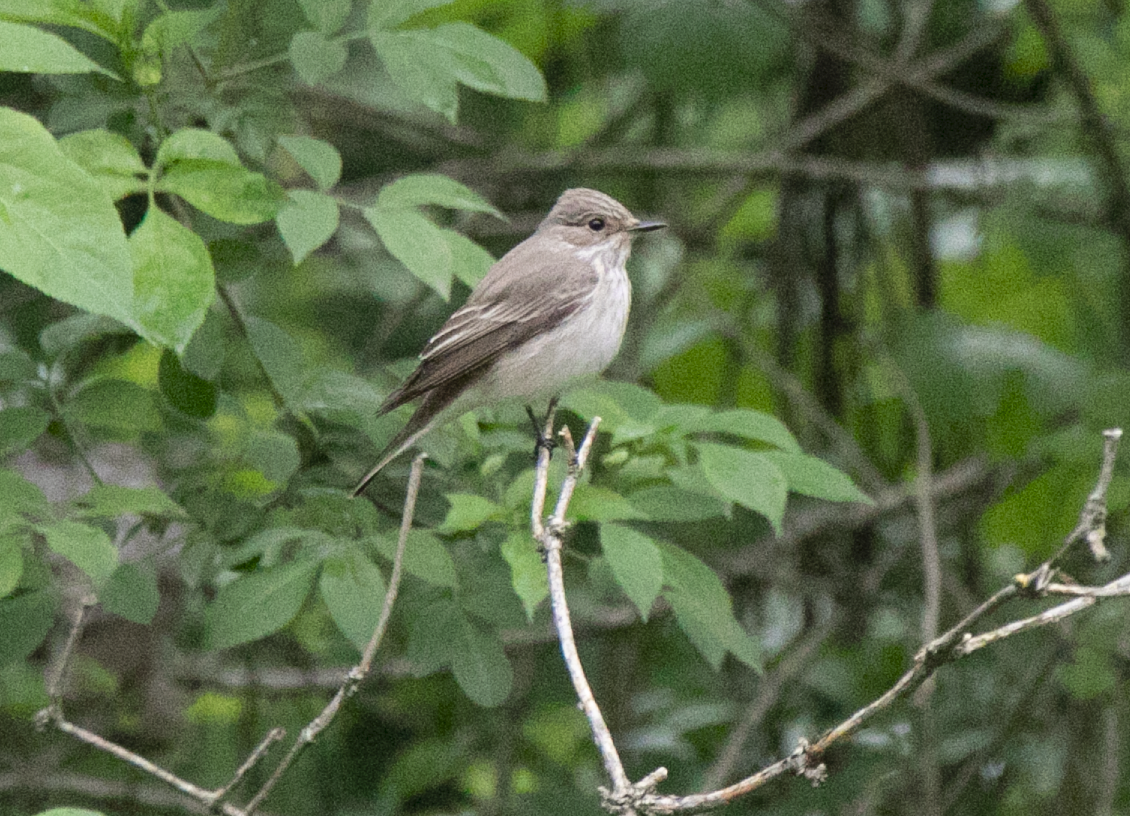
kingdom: Animalia
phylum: Chordata
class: Aves
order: Passeriformes
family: Muscicapidae
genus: Muscicapa
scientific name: Muscicapa striata
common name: Spotted flycatcher
